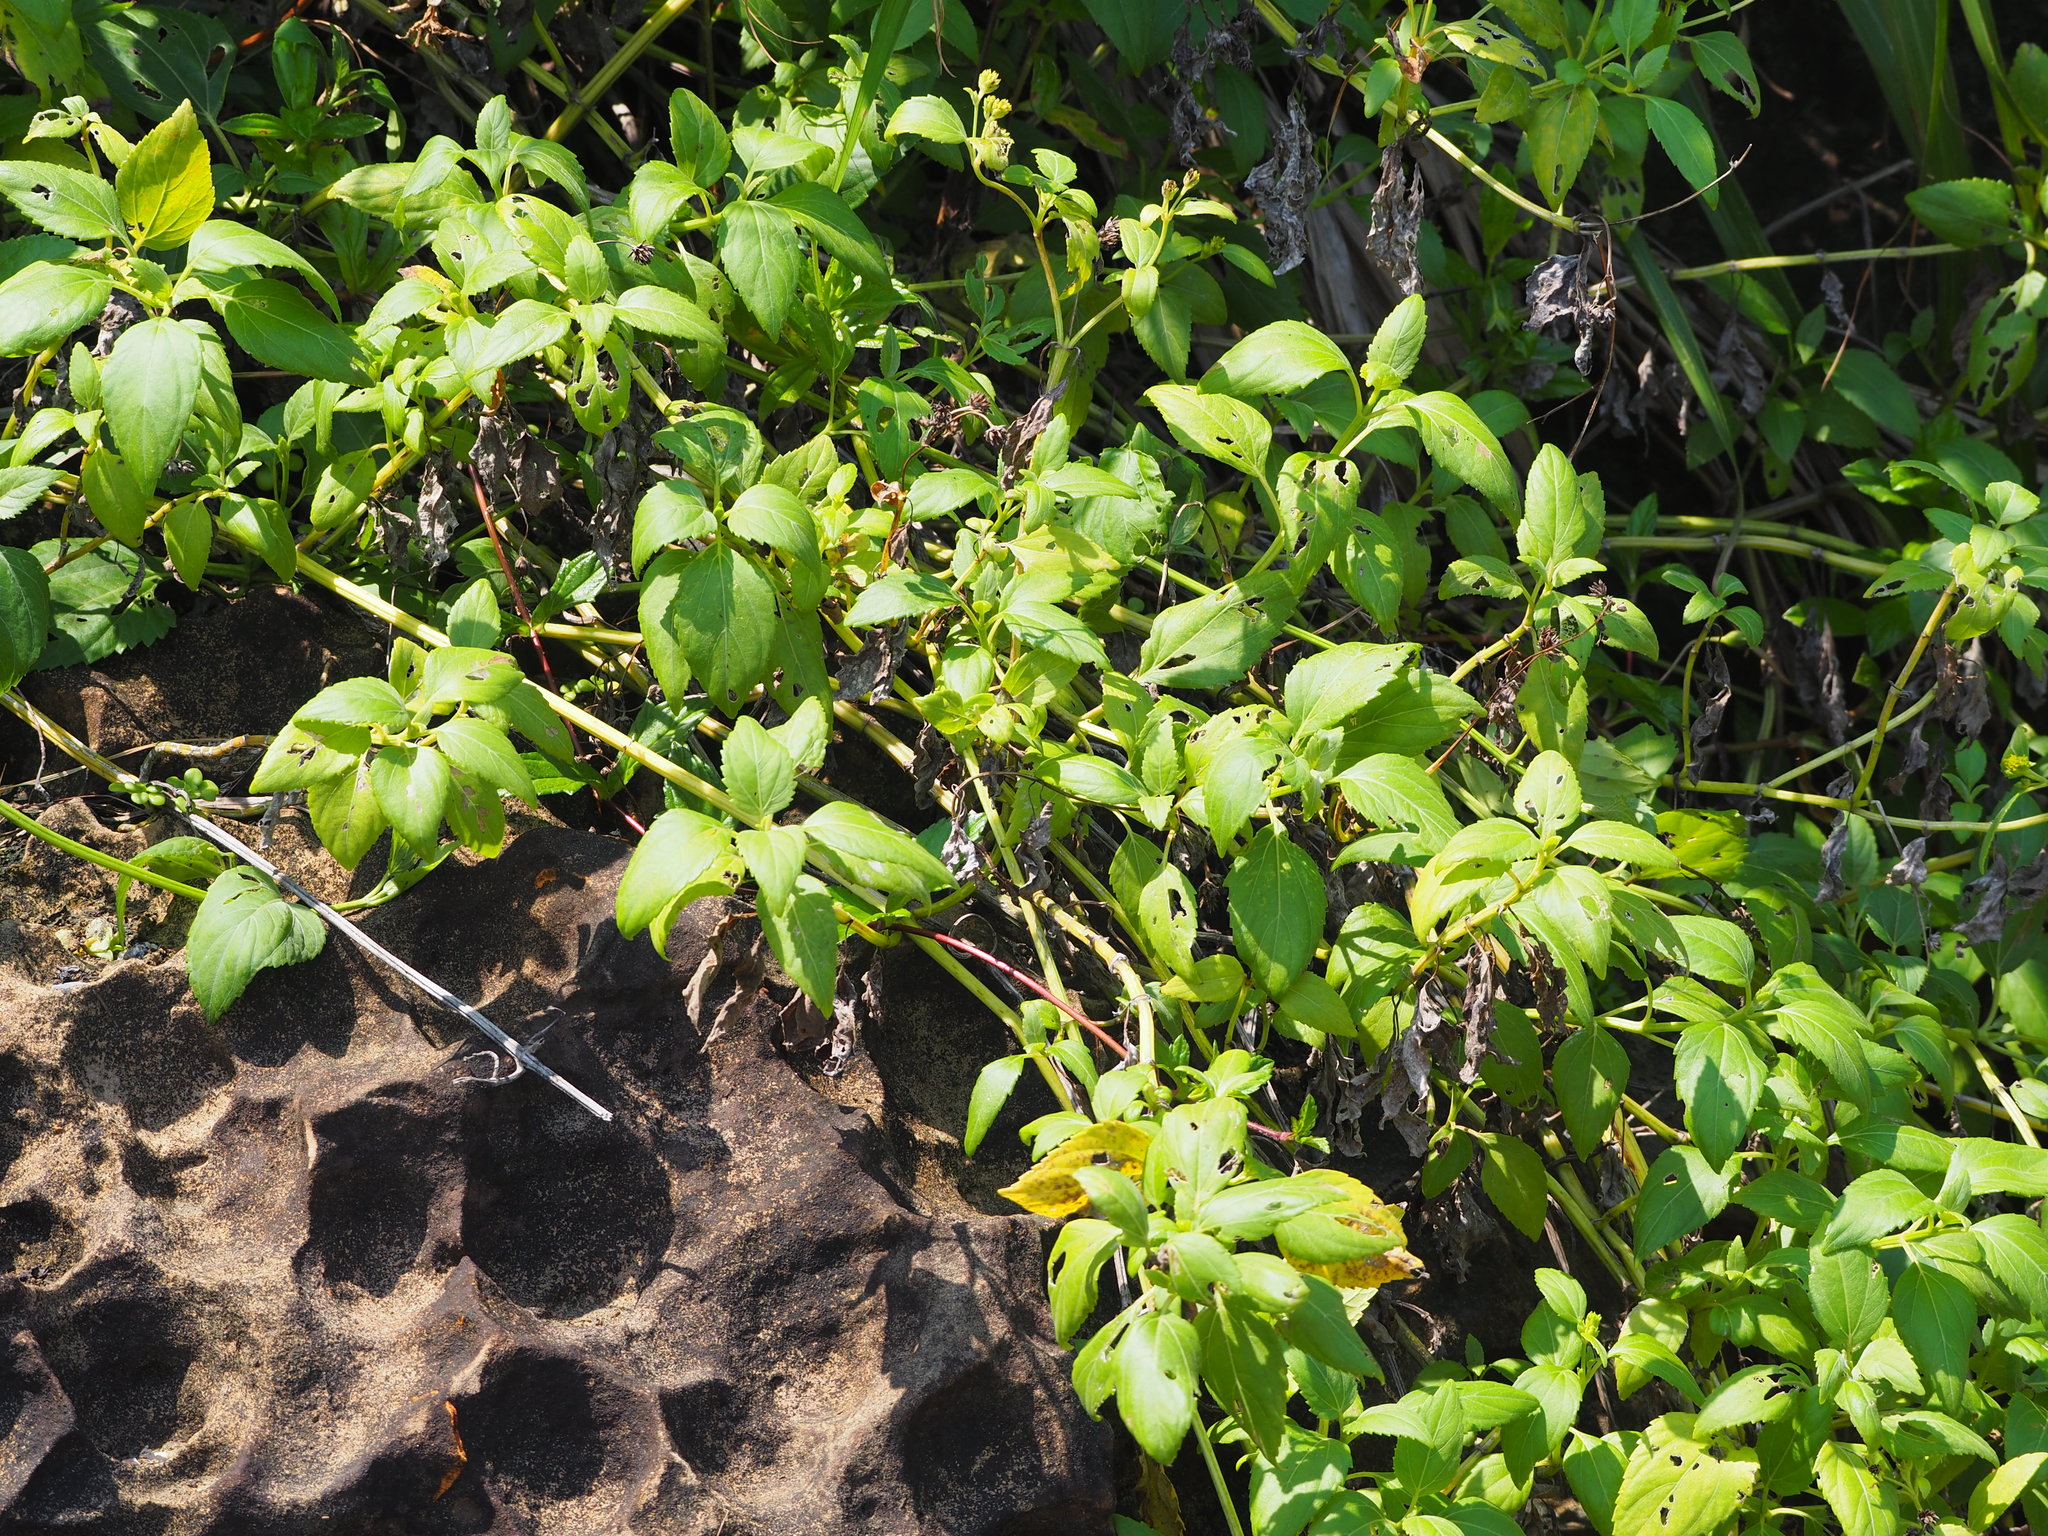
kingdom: Plantae
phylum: Tracheophyta
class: Magnoliopsida
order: Asterales
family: Asteraceae
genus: Wollastonia
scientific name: Wollastonia biflora
